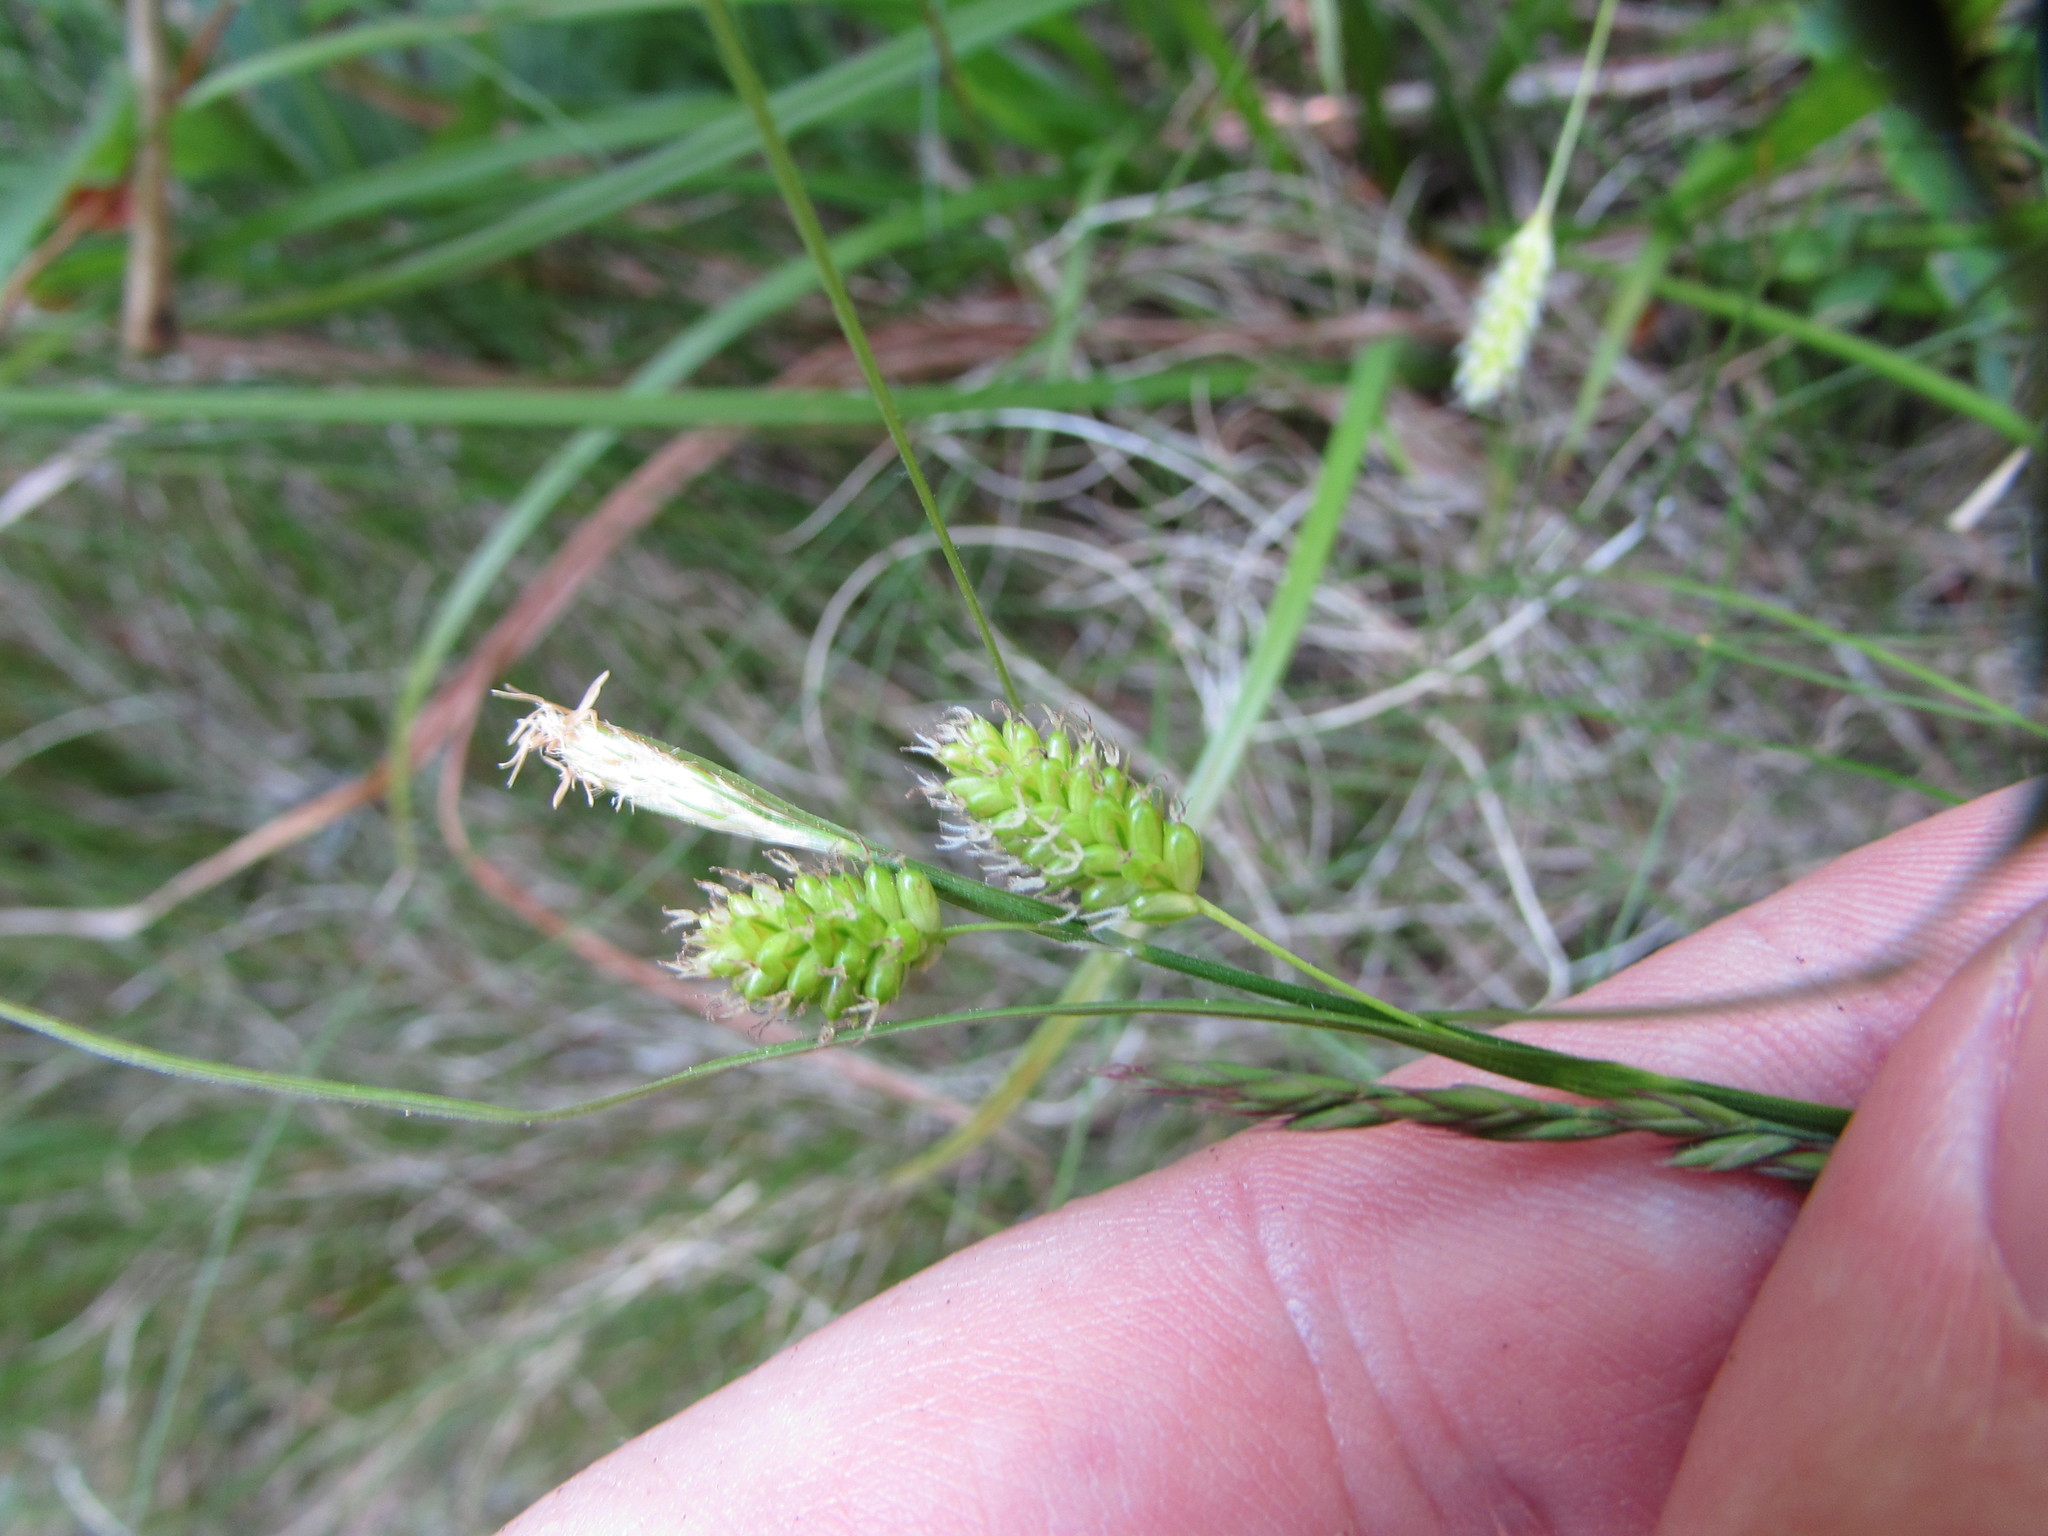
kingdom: Plantae
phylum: Tracheophyta
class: Liliopsida
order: Poales
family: Cyperaceae
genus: Carex
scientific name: Carex pallescens
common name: Pale sedge
